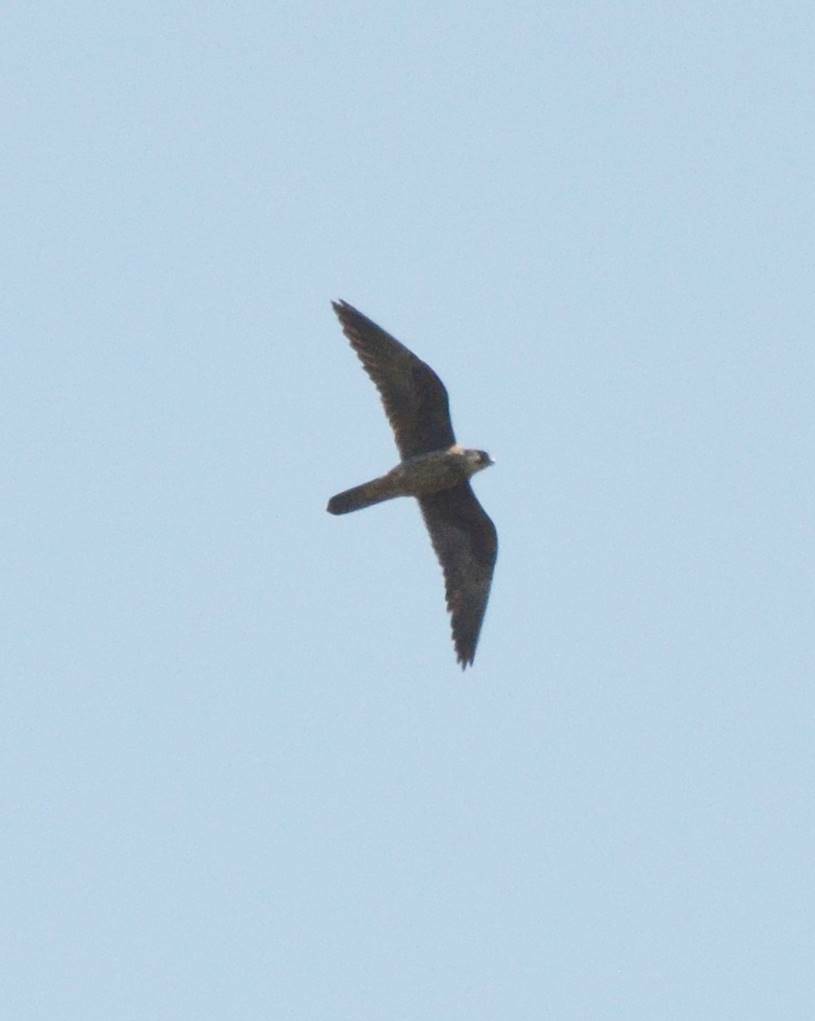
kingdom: Animalia
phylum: Chordata
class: Aves
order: Falconiformes
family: Falconidae
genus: Falco
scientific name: Falco eleonorae
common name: Eleonora's falcon
